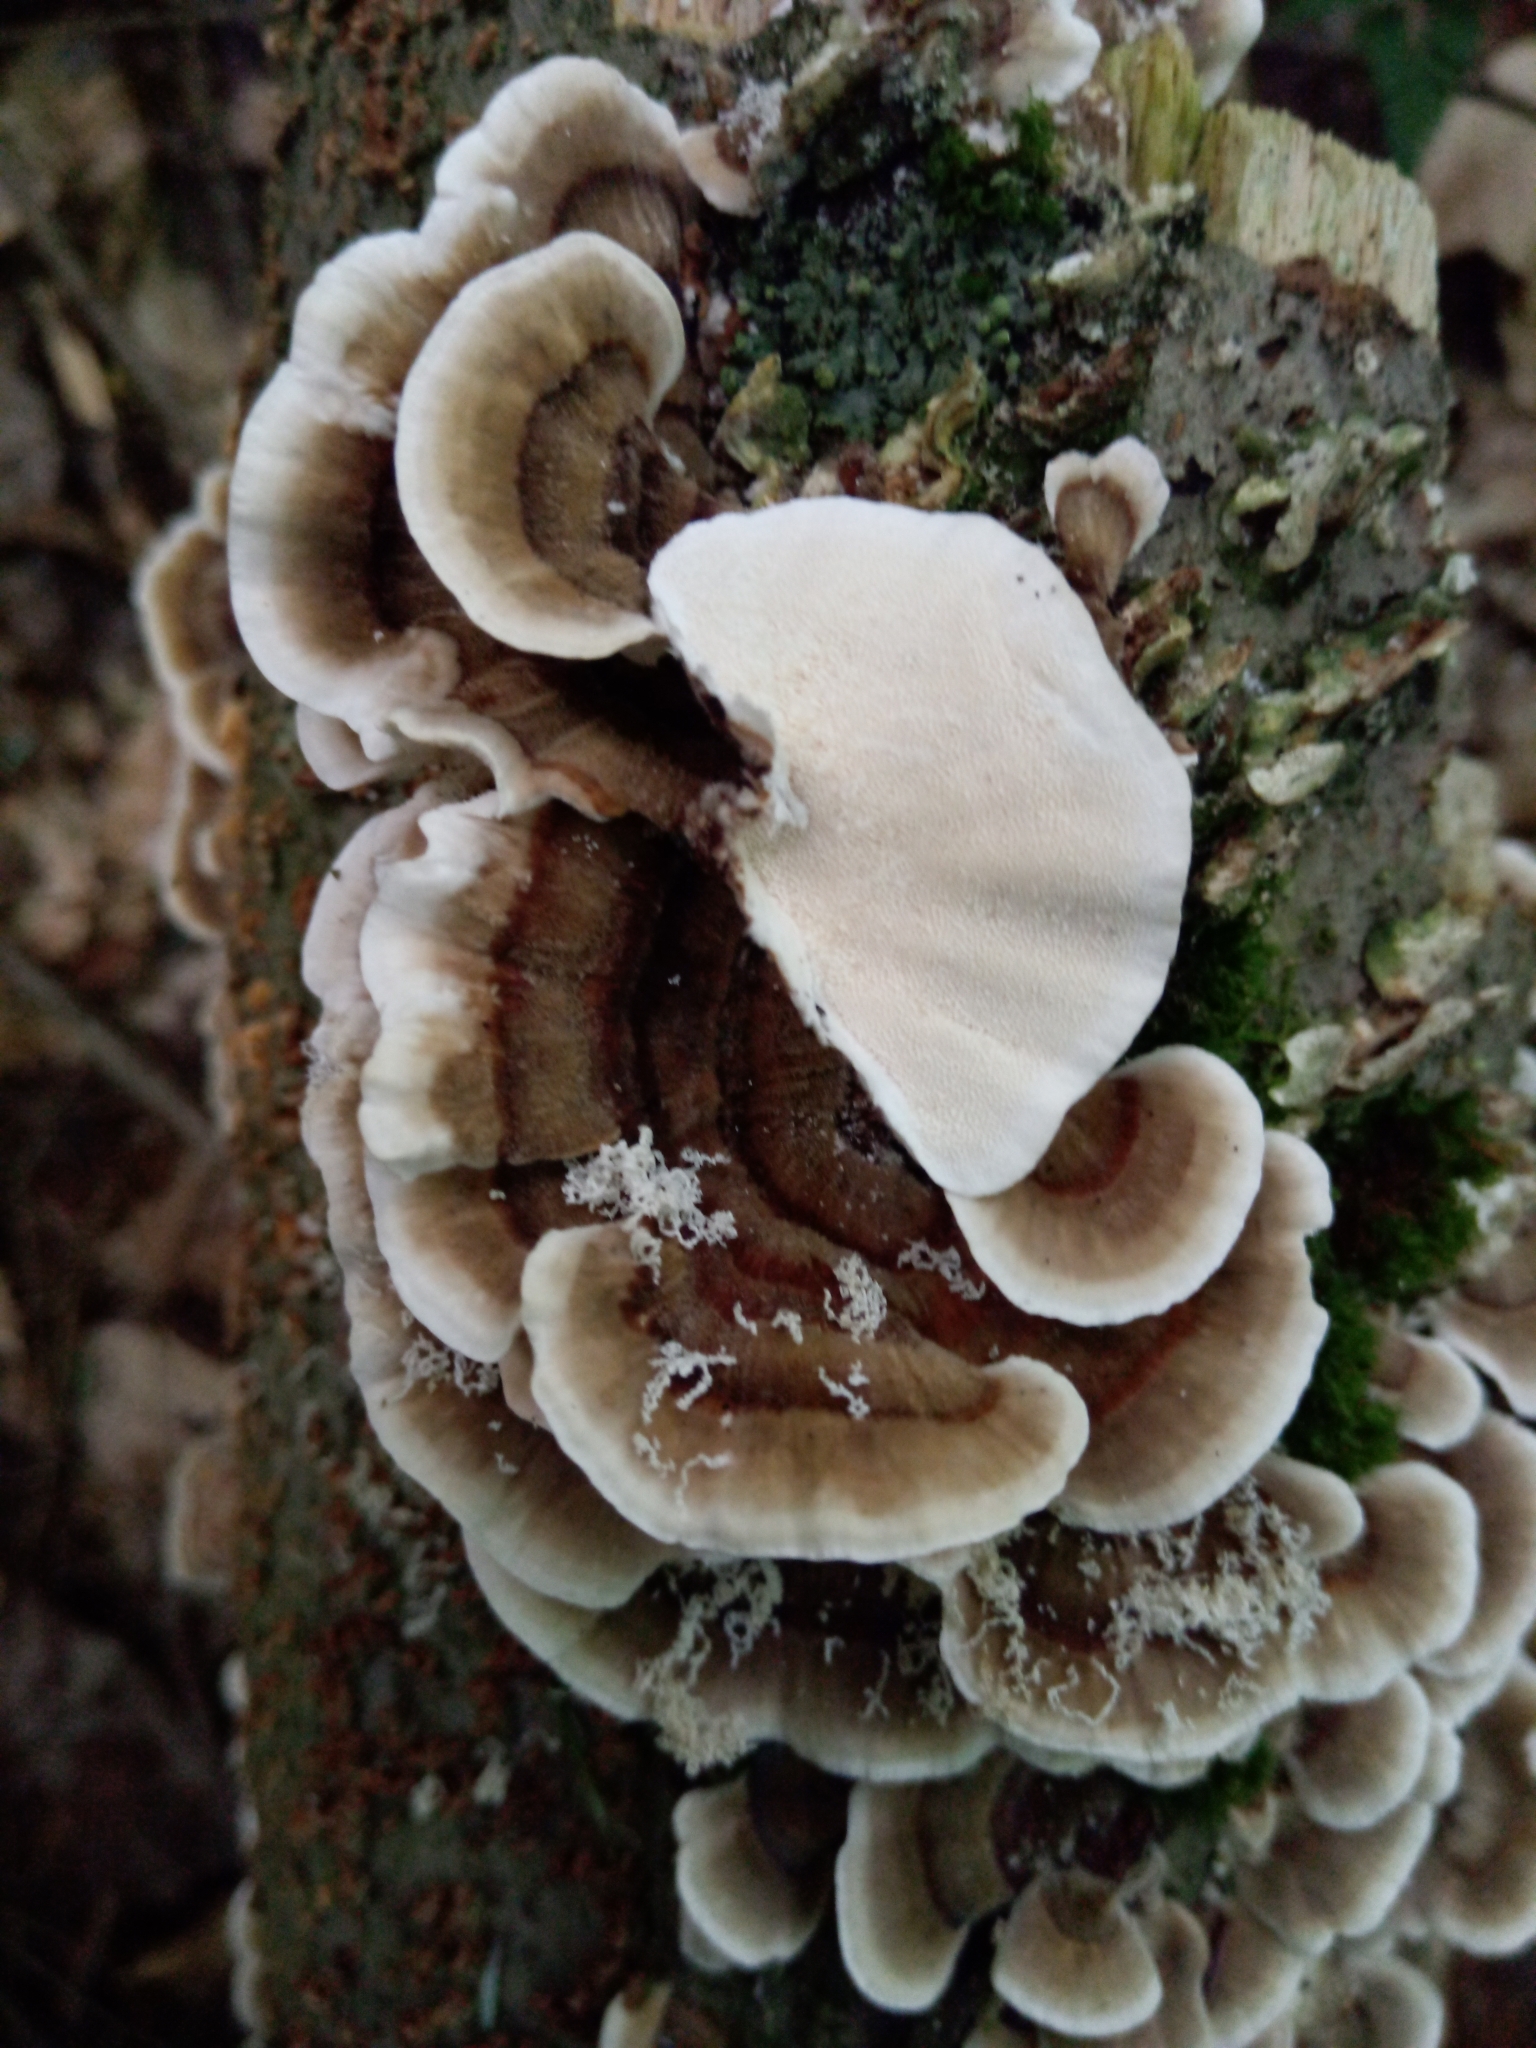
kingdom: Fungi
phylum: Basidiomycota
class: Agaricomycetes
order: Polyporales
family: Polyporaceae
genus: Trametes
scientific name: Trametes versicolor
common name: Turkeytail
